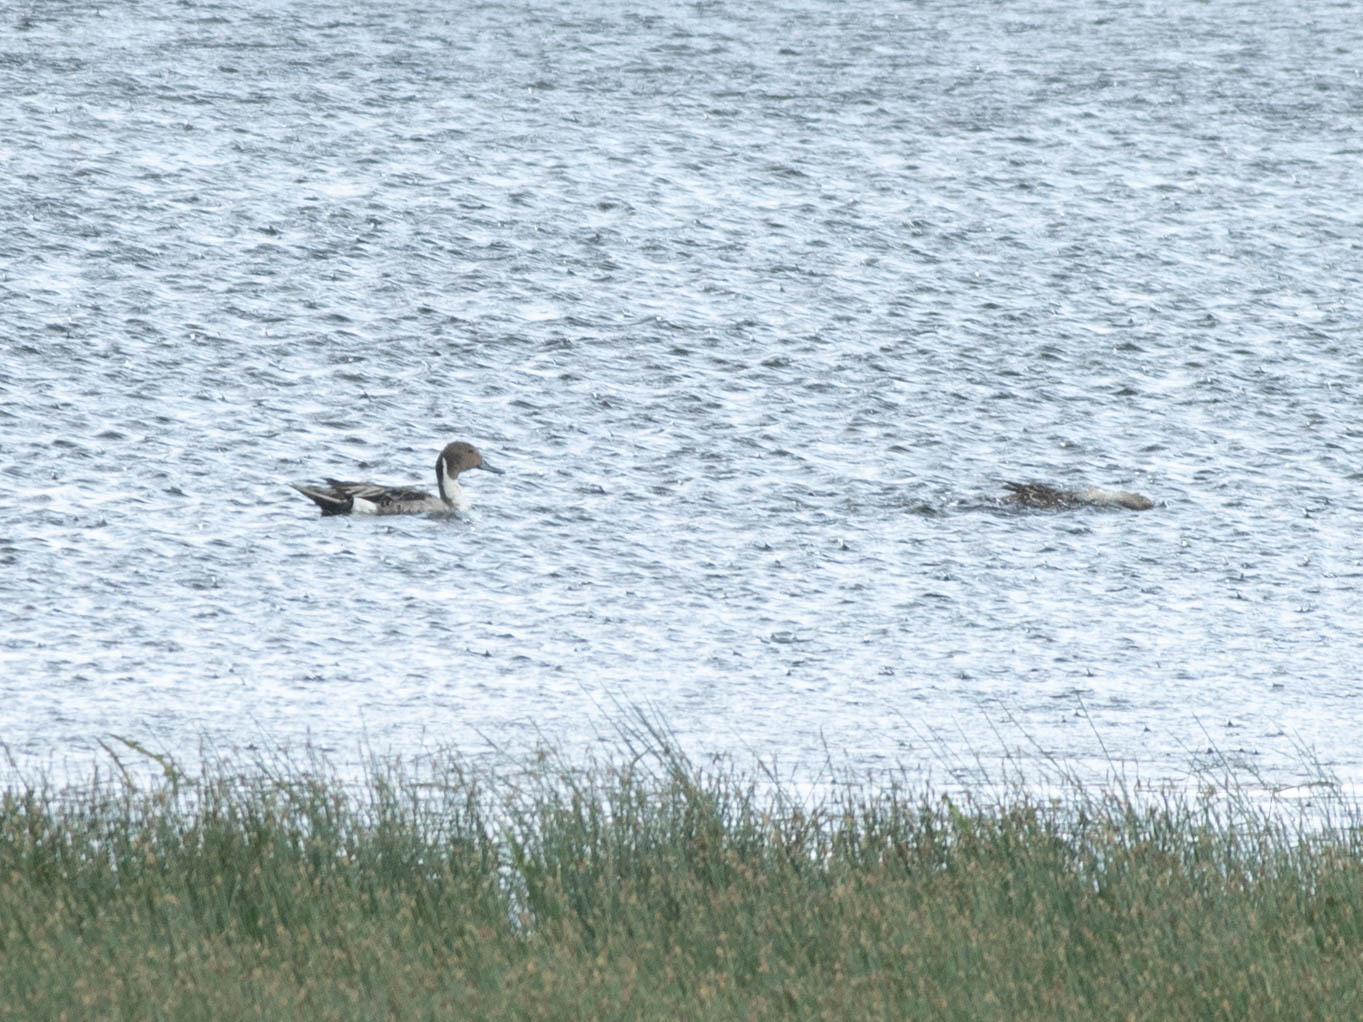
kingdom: Animalia
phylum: Chordata
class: Aves
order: Anseriformes
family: Anatidae
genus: Anas
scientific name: Anas acuta
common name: Northern pintail
